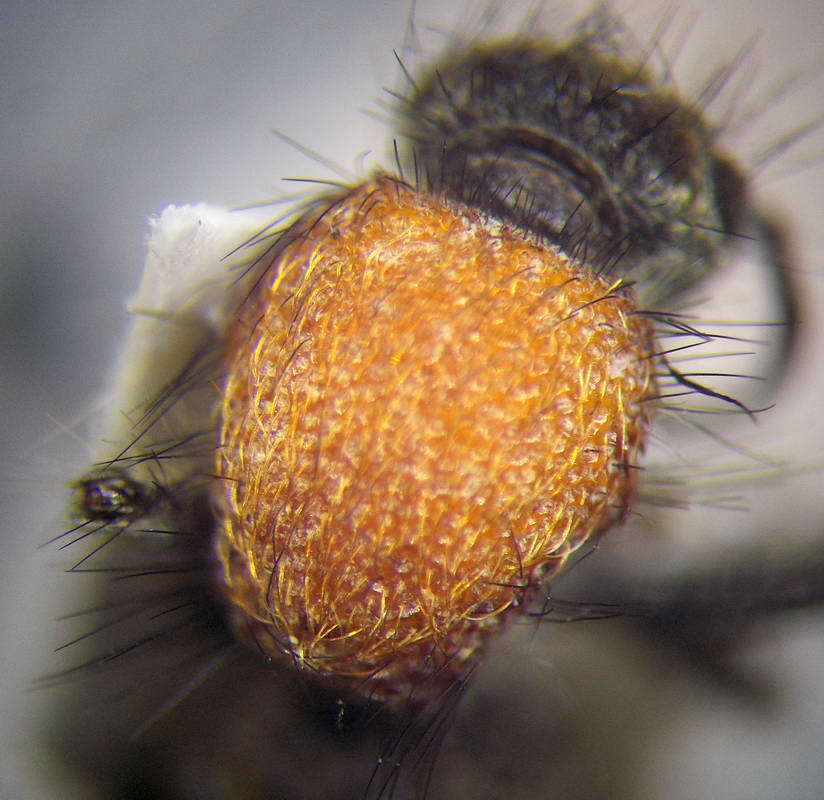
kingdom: Animalia
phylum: Arthropoda
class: Insecta
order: Hymenoptera
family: Mutillidae
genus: Dasylabris
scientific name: Dasylabris maura
